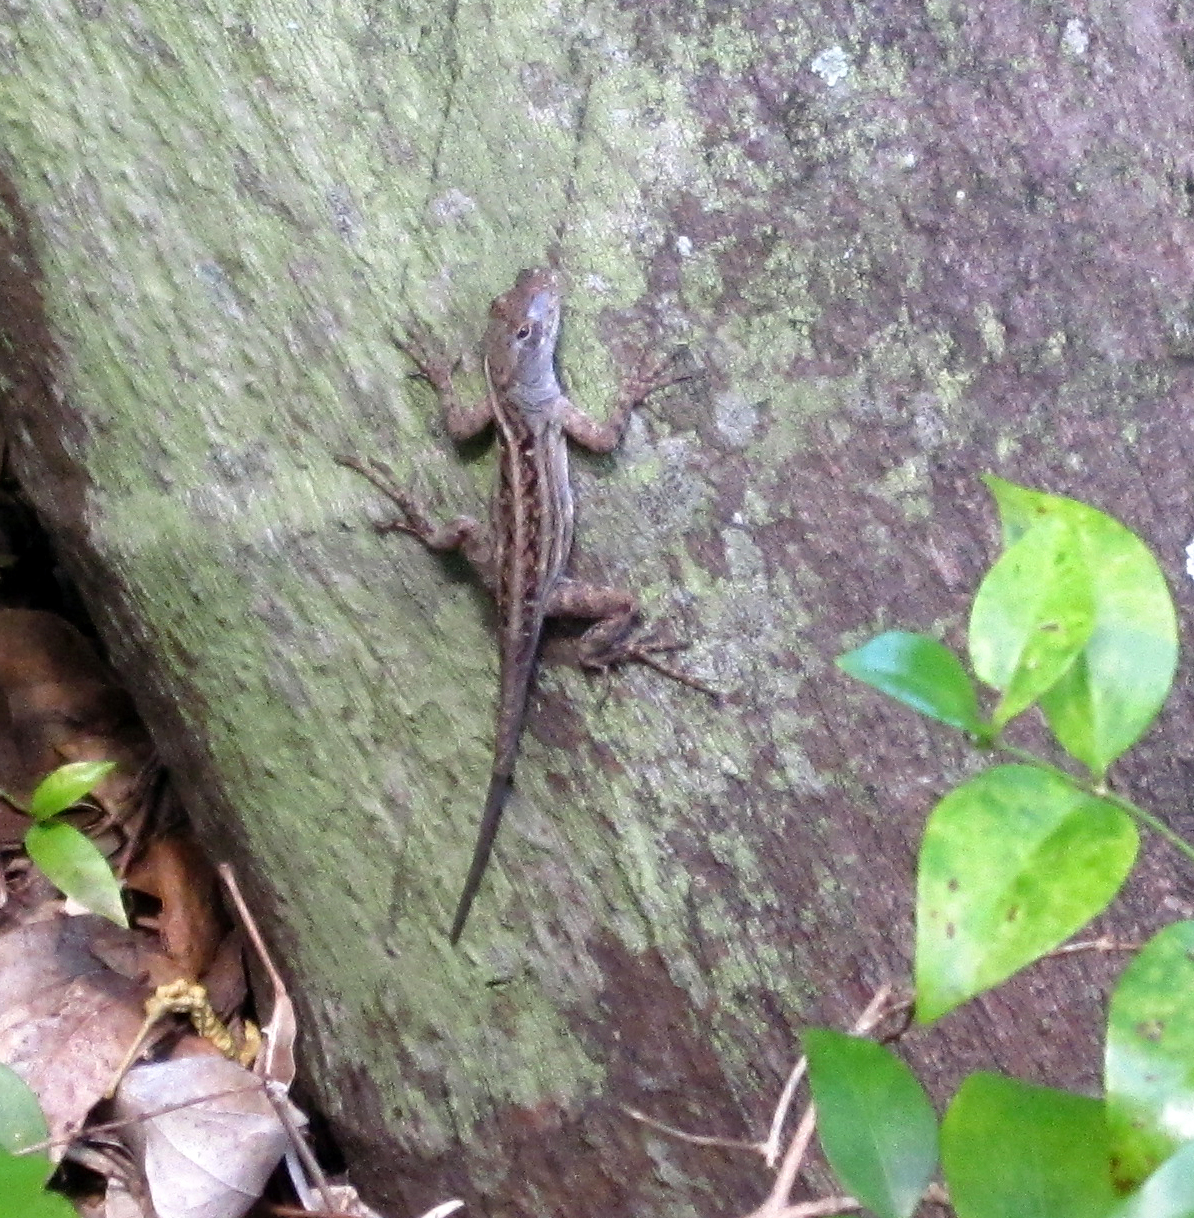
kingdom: Animalia
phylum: Chordata
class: Squamata
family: Dactyloidae
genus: Anolis
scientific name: Anolis sagrei
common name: Brown anole
